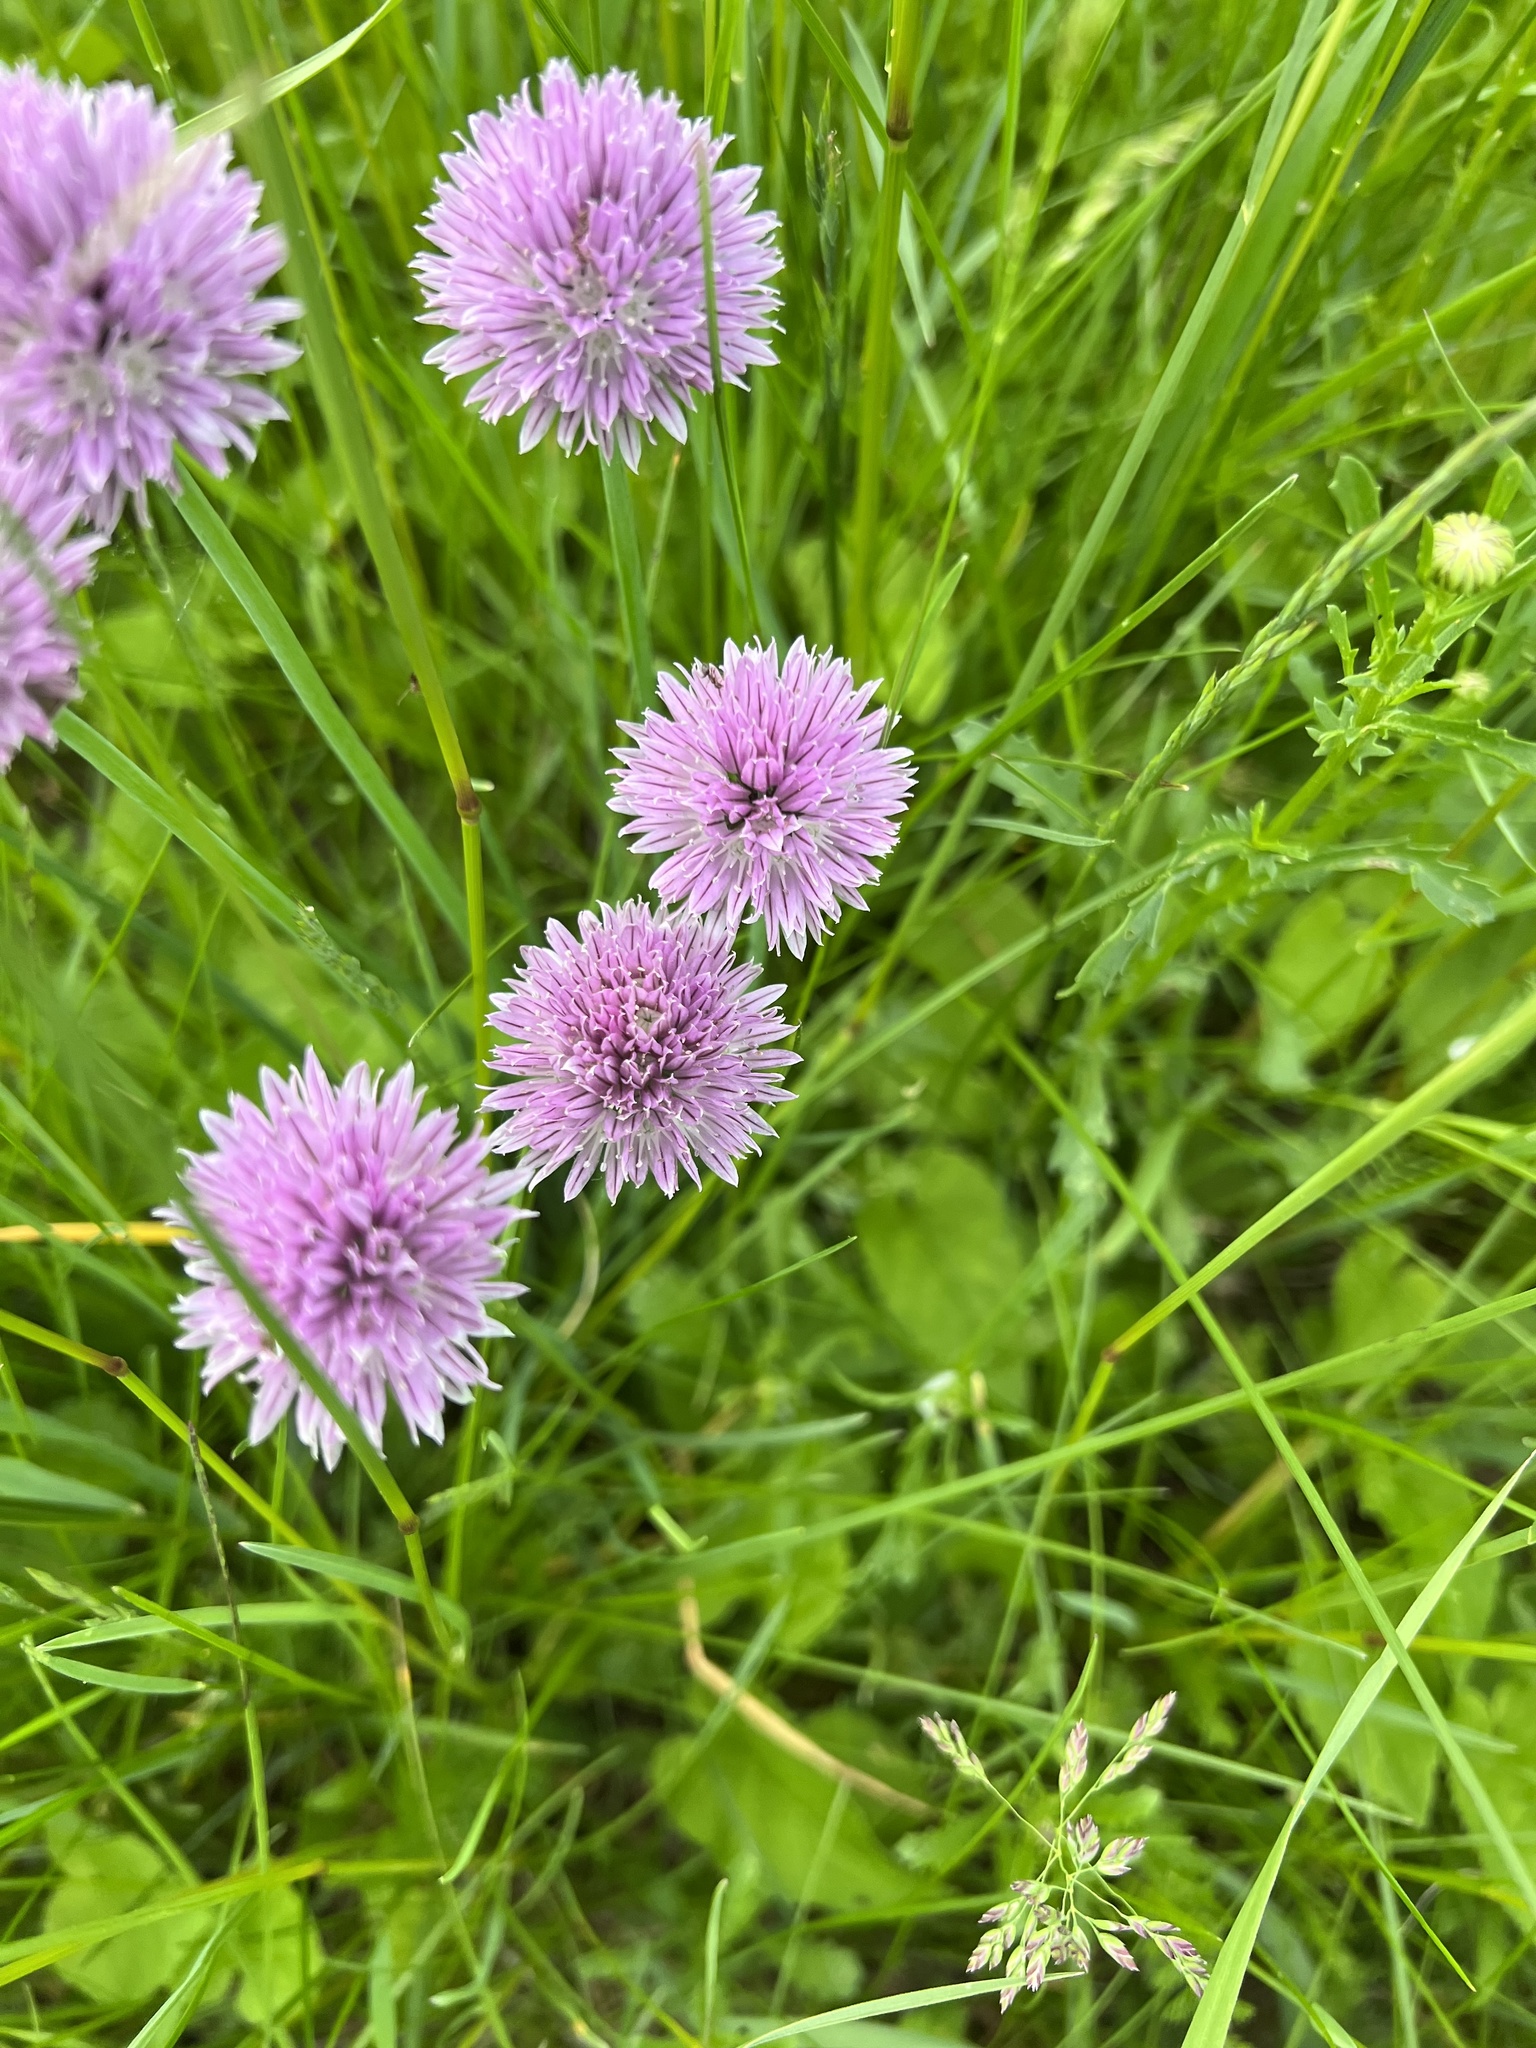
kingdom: Plantae
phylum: Tracheophyta
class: Liliopsida
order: Asparagales
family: Amaryllidaceae
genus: Allium
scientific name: Allium schoenoprasum
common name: Chives
